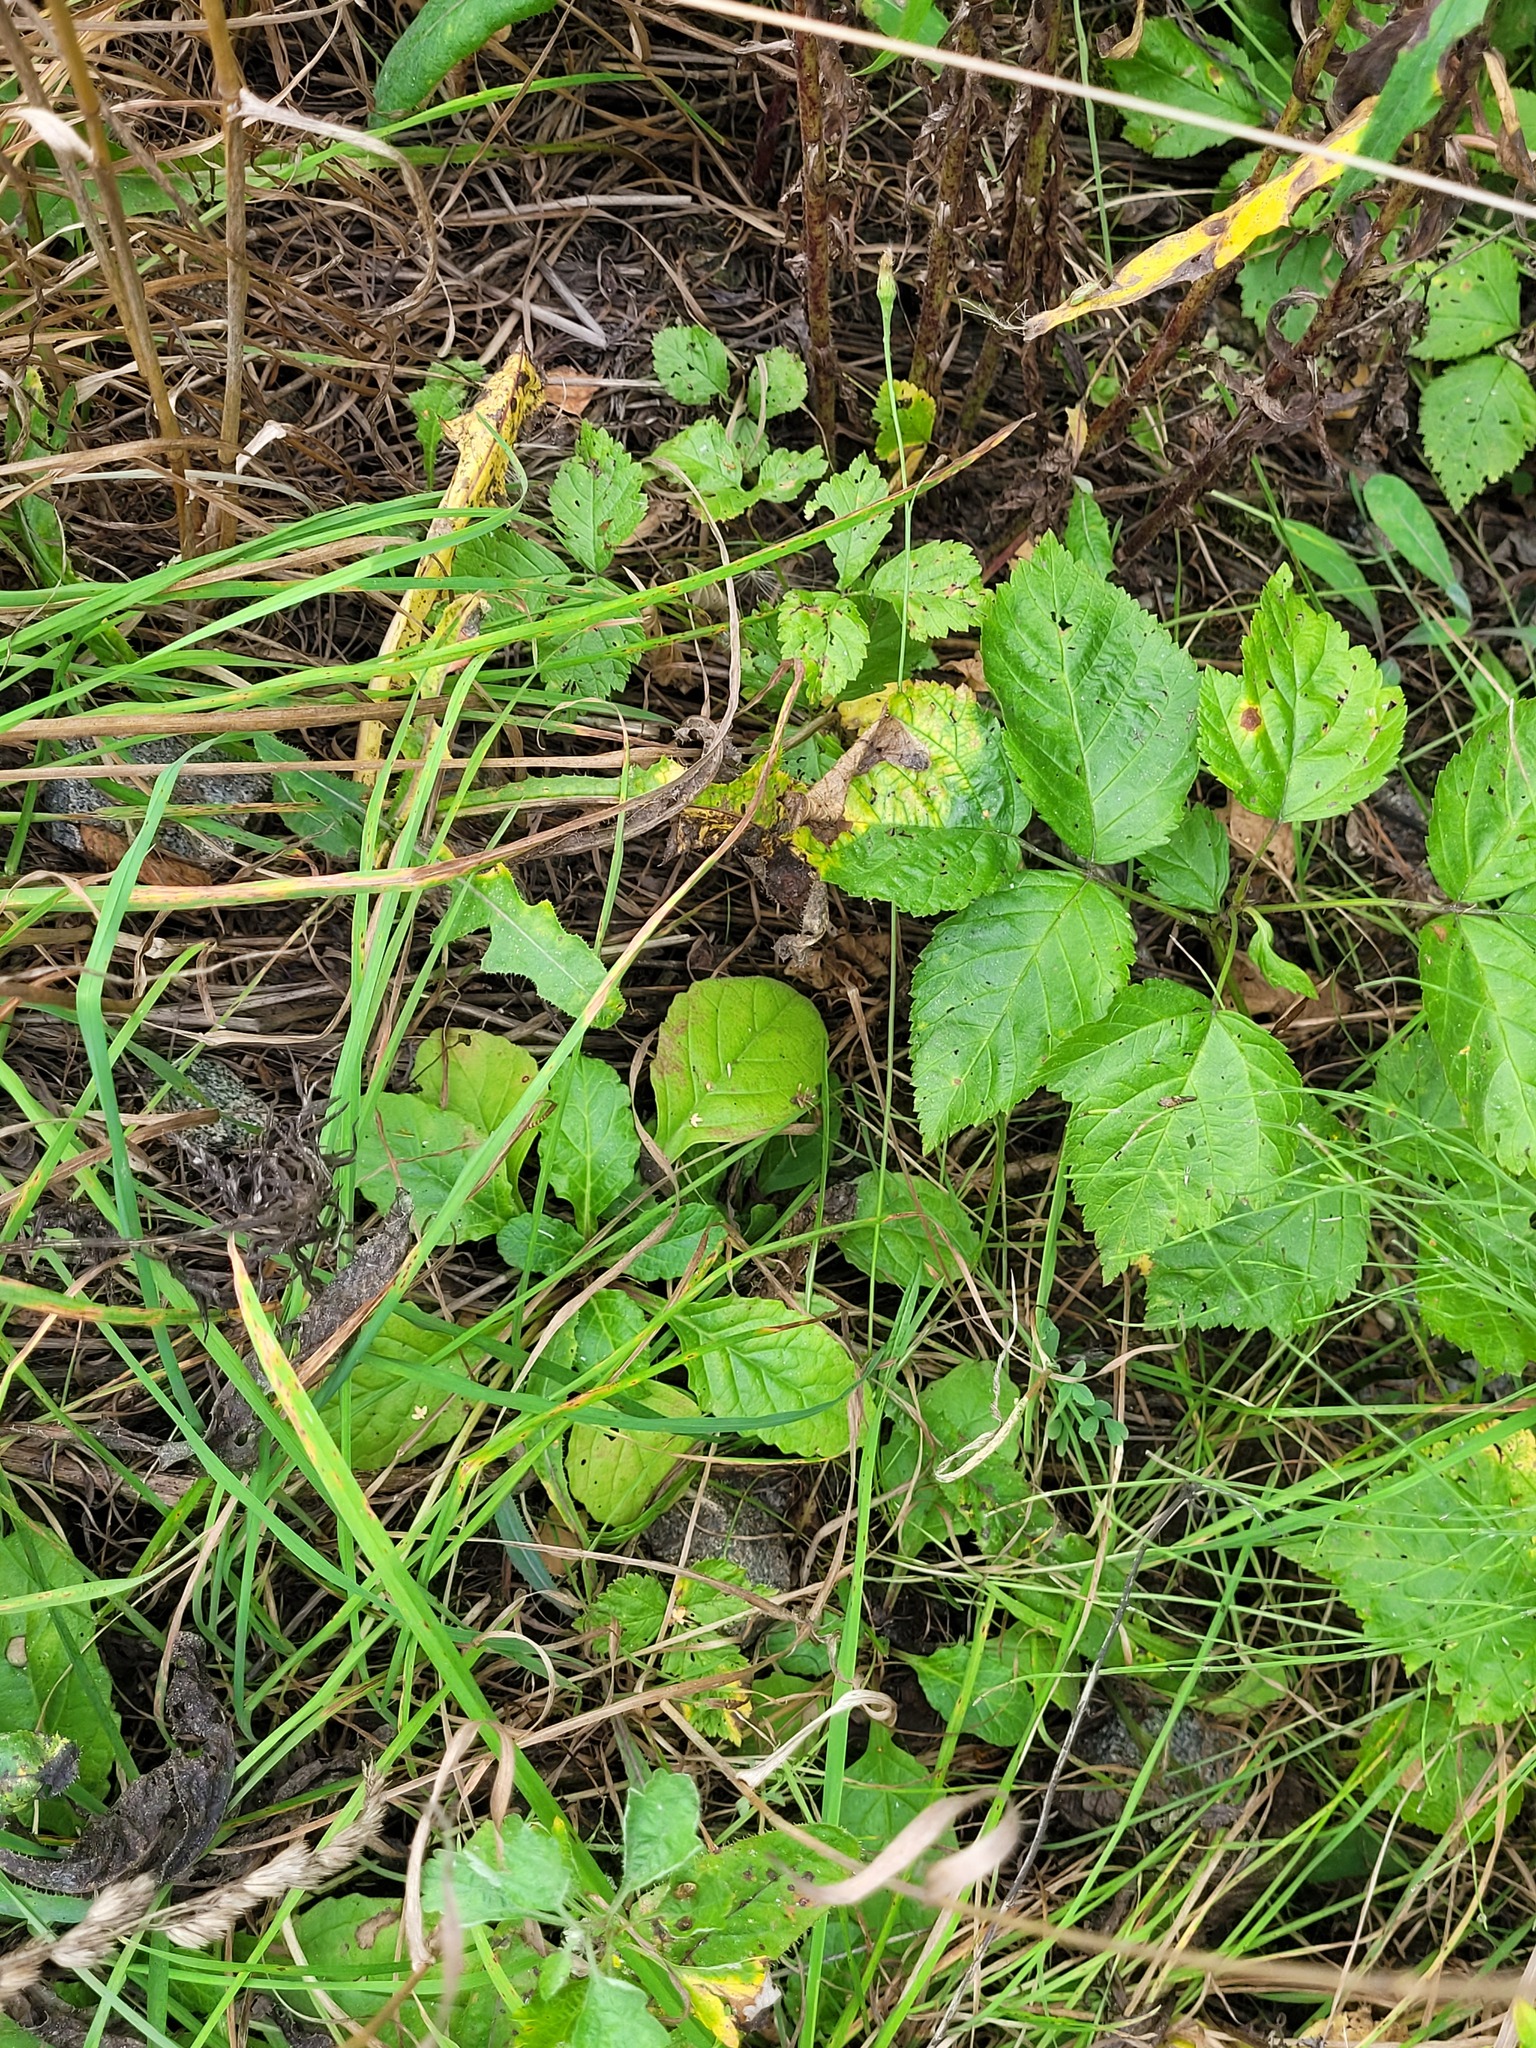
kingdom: Plantae
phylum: Tracheophyta
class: Magnoliopsida
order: Lamiales
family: Lamiaceae
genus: Ajuga
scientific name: Ajuga reptans
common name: Bugle
